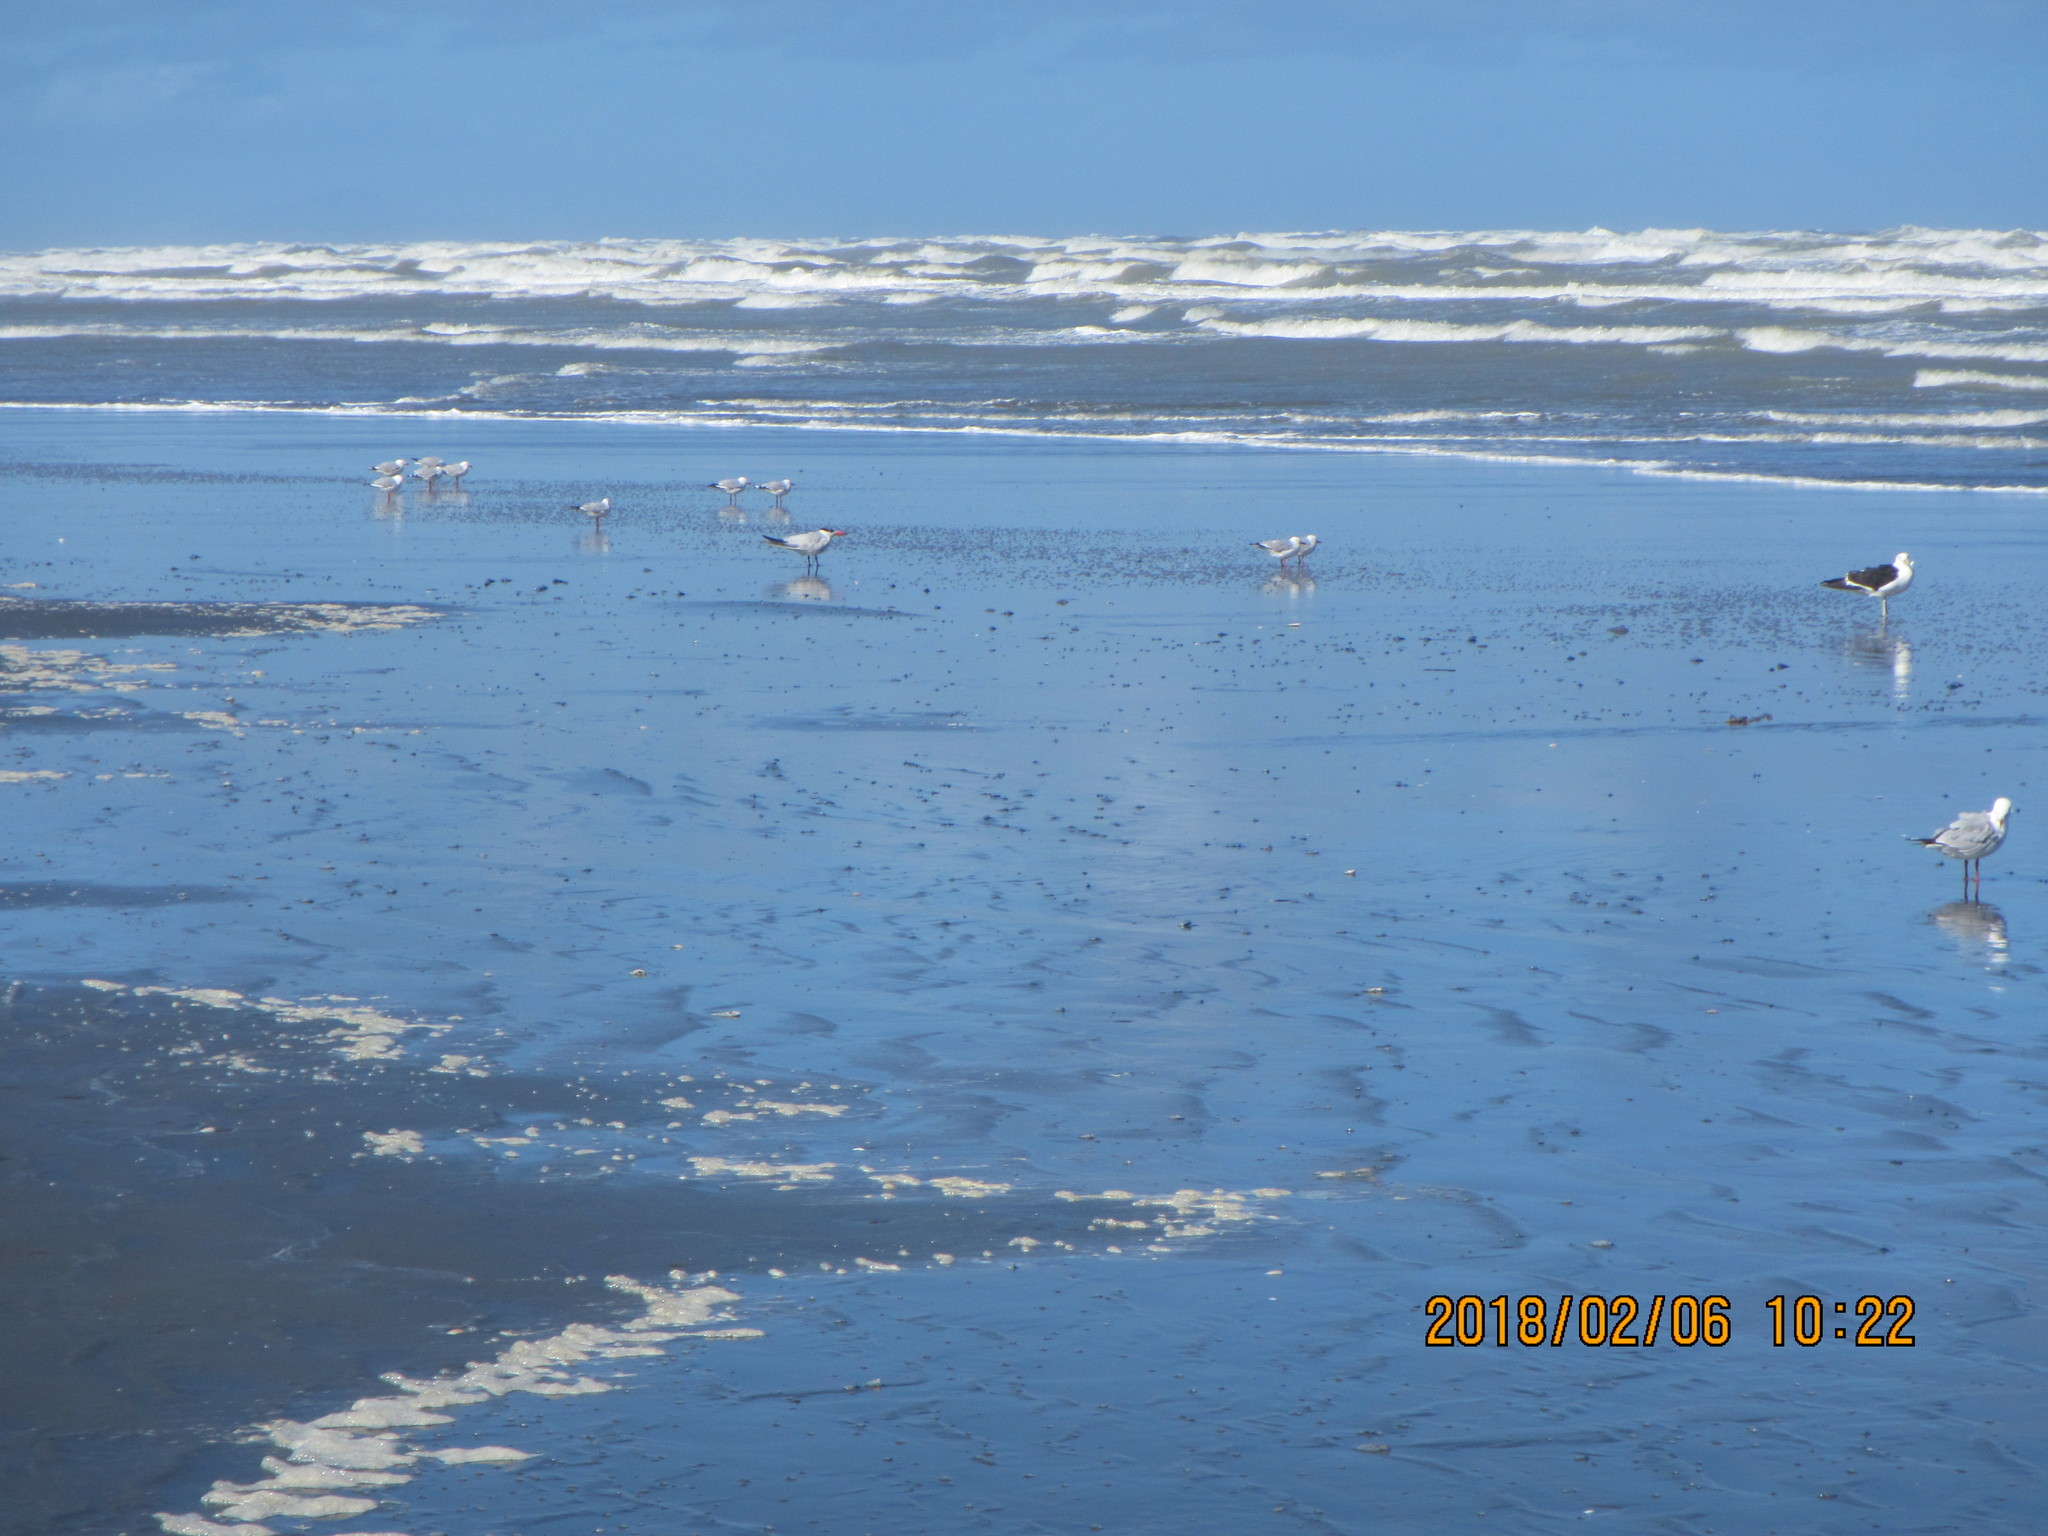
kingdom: Animalia
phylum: Chordata
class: Aves
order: Charadriiformes
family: Laridae
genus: Hydroprogne
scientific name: Hydroprogne caspia
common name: Caspian tern
